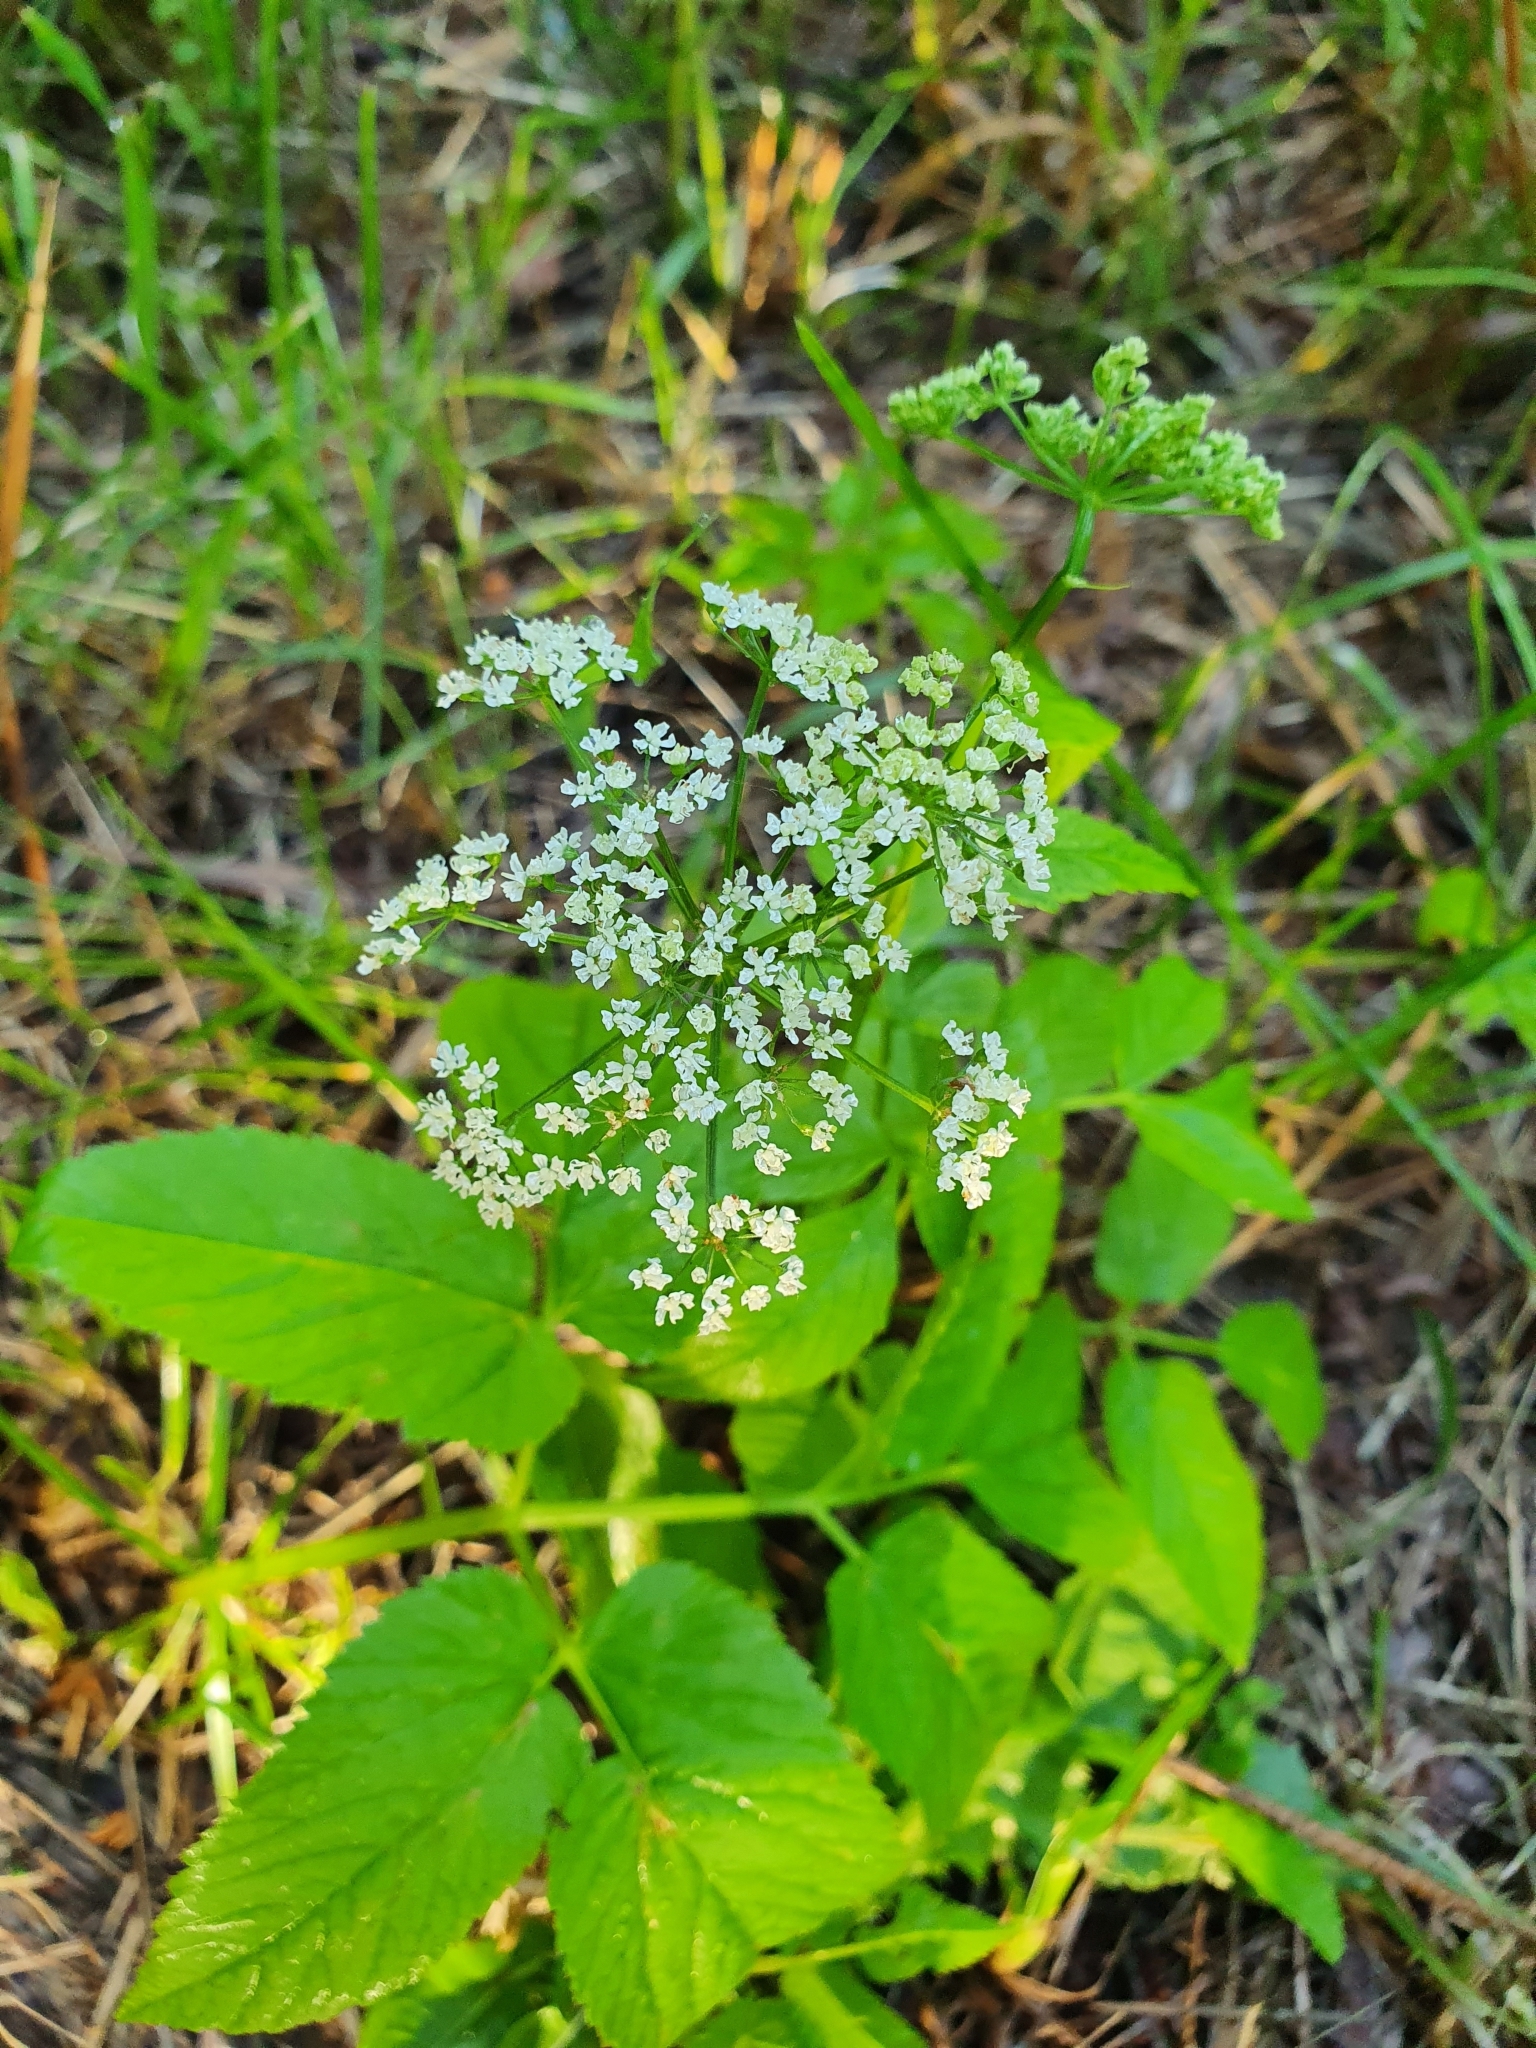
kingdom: Plantae
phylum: Tracheophyta
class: Magnoliopsida
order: Apiales
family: Apiaceae
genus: Aegopodium
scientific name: Aegopodium podagraria
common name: Ground-elder
